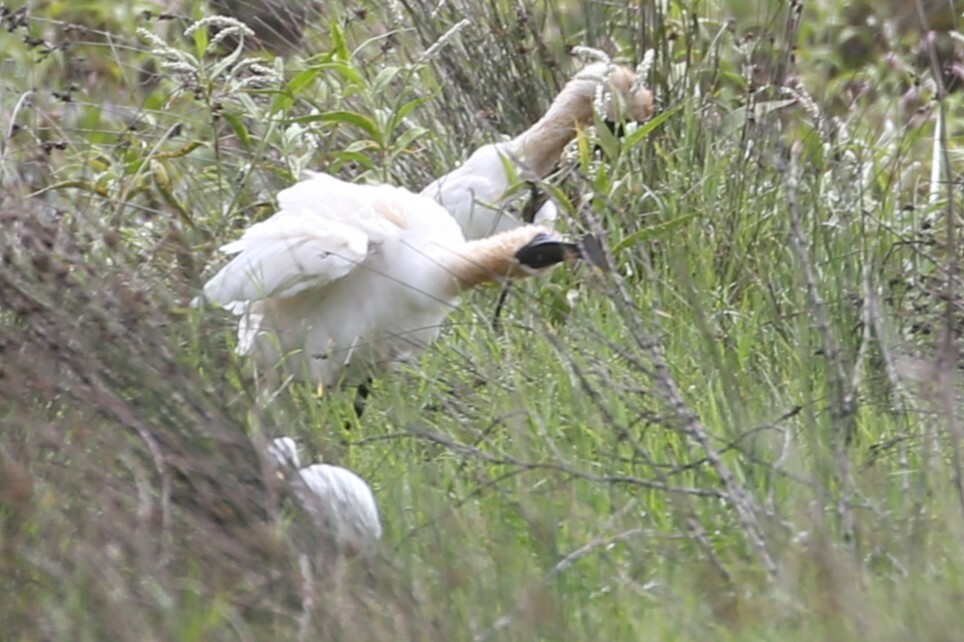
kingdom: Animalia
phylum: Chordata
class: Aves
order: Pelecaniformes
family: Threskiornithidae
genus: Platalea
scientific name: Platalea regia
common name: Royal spoonbill
